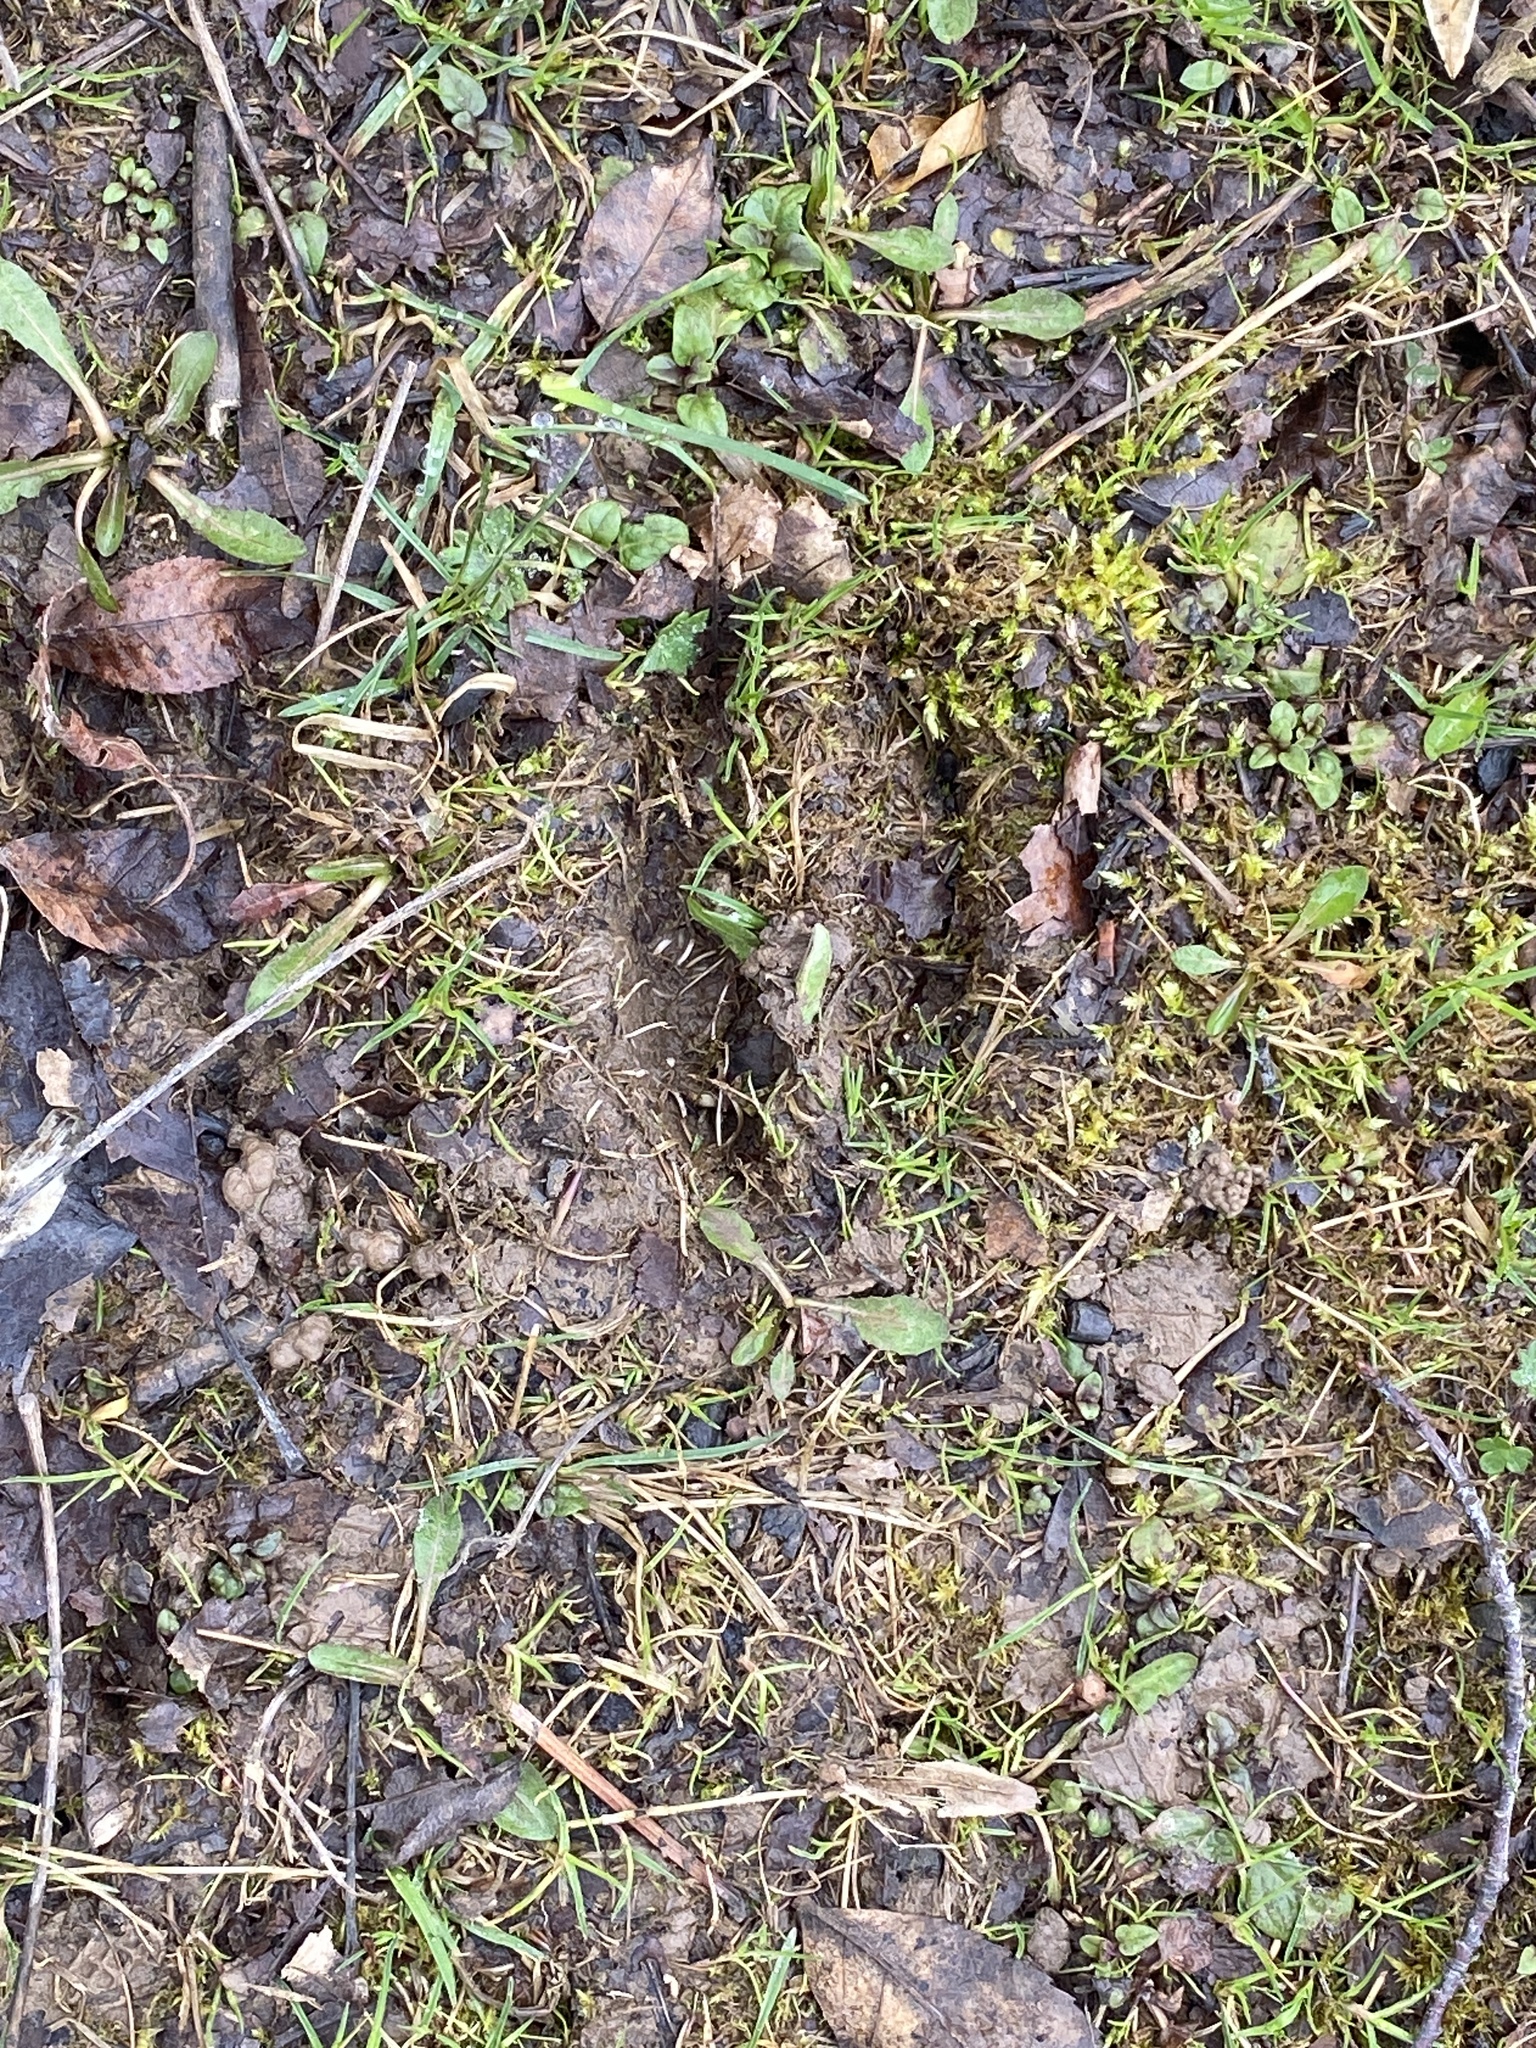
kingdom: Animalia
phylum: Chordata
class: Mammalia
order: Artiodactyla
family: Cervidae
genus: Odocoileus
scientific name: Odocoileus virginianus
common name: White-tailed deer
